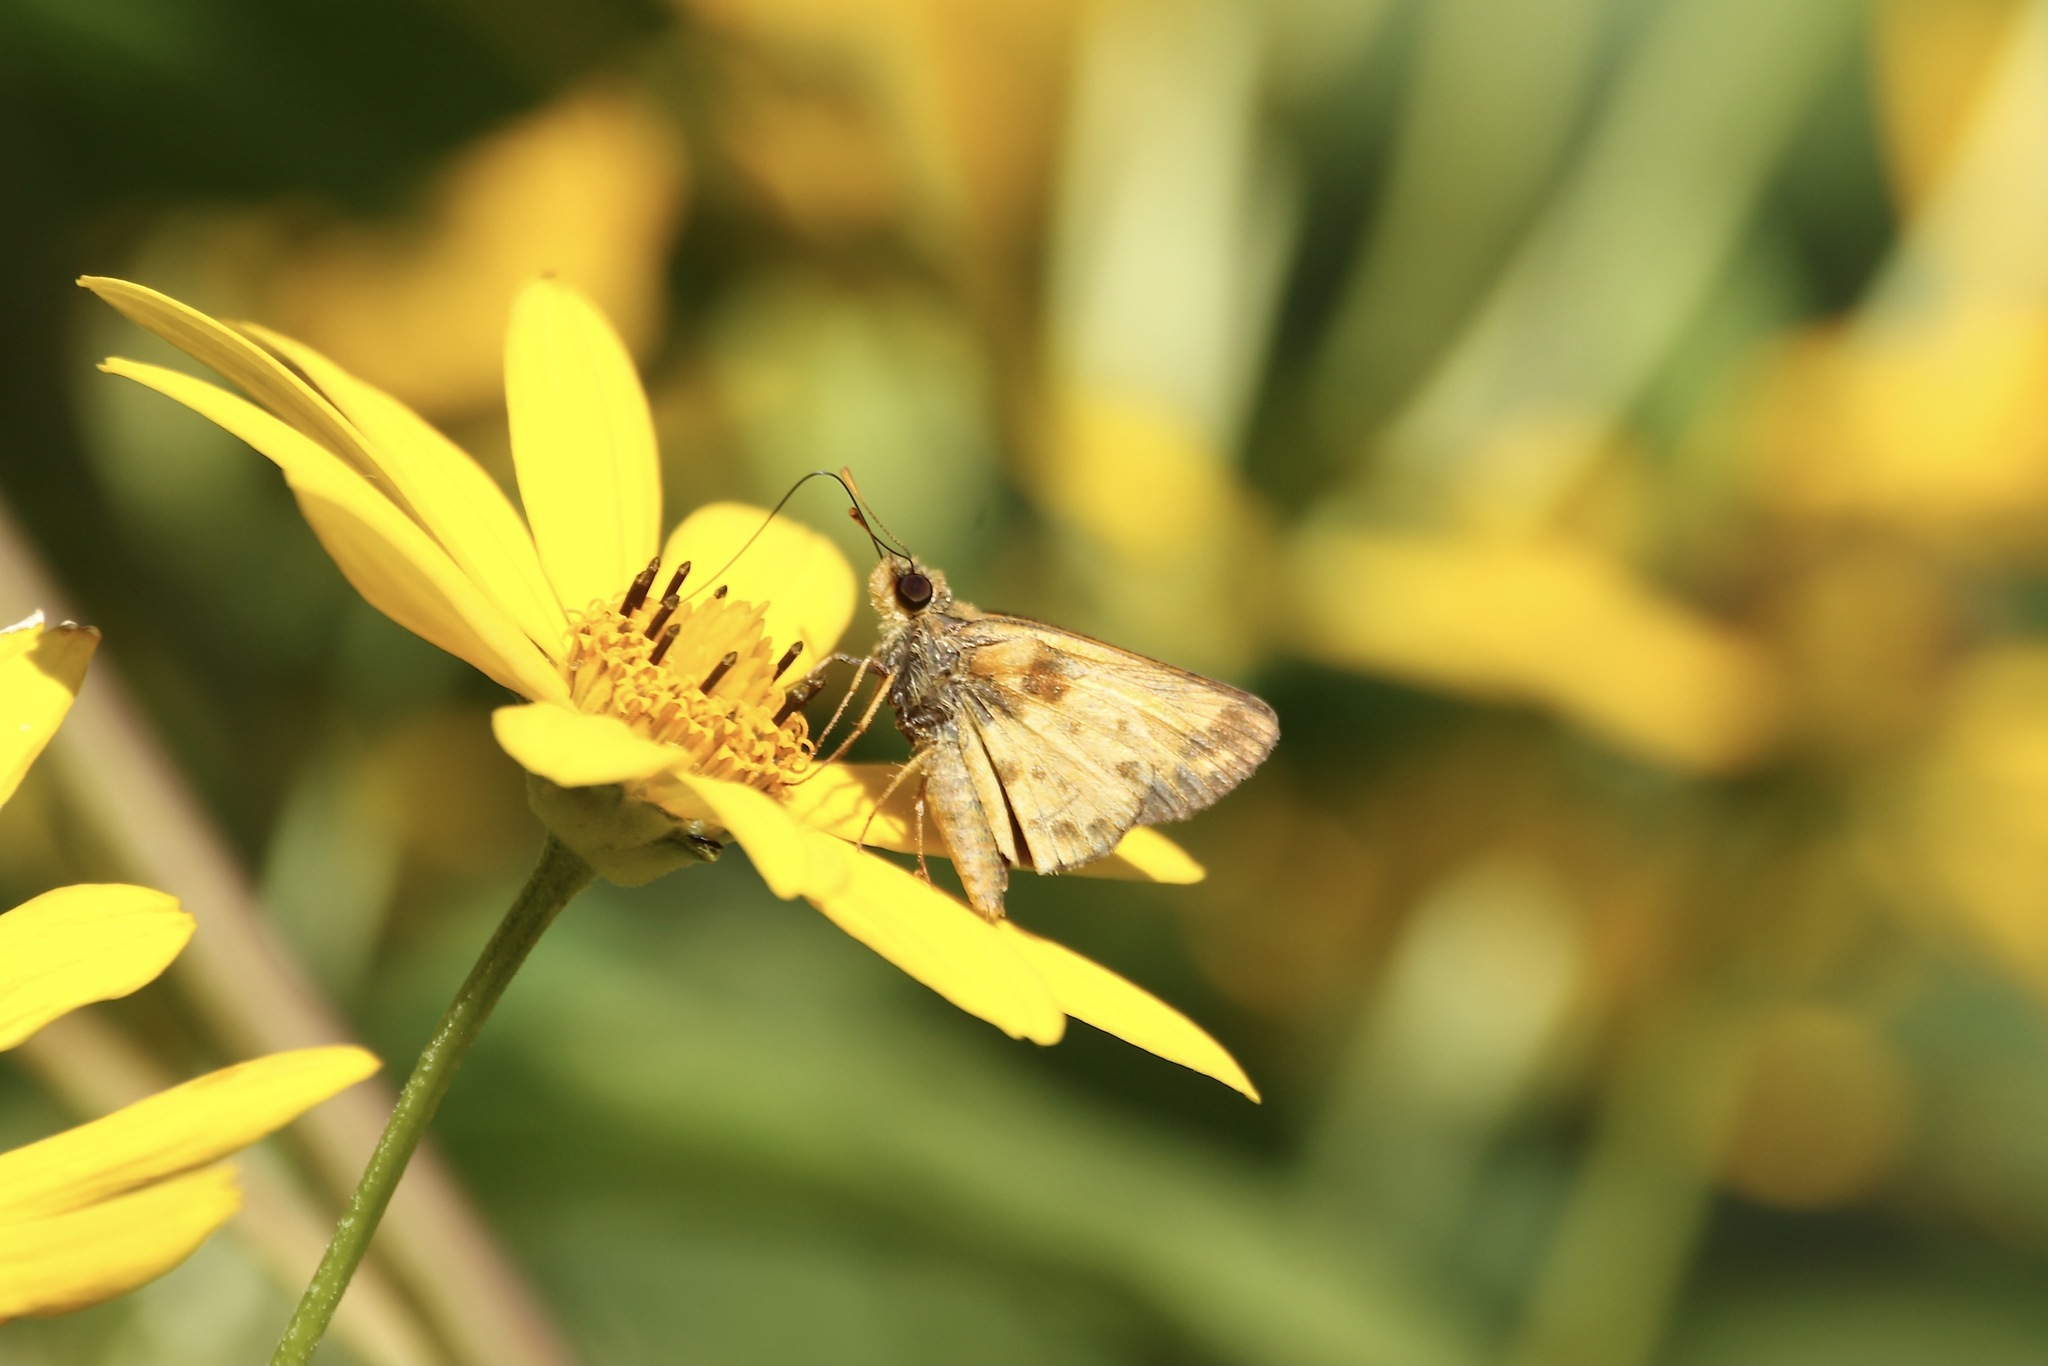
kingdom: Animalia
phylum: Arthropoda
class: Insecta
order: Lepidoptera
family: Hesperiidae
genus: Lon
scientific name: Lon zabulon
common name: Zabulon skipper
